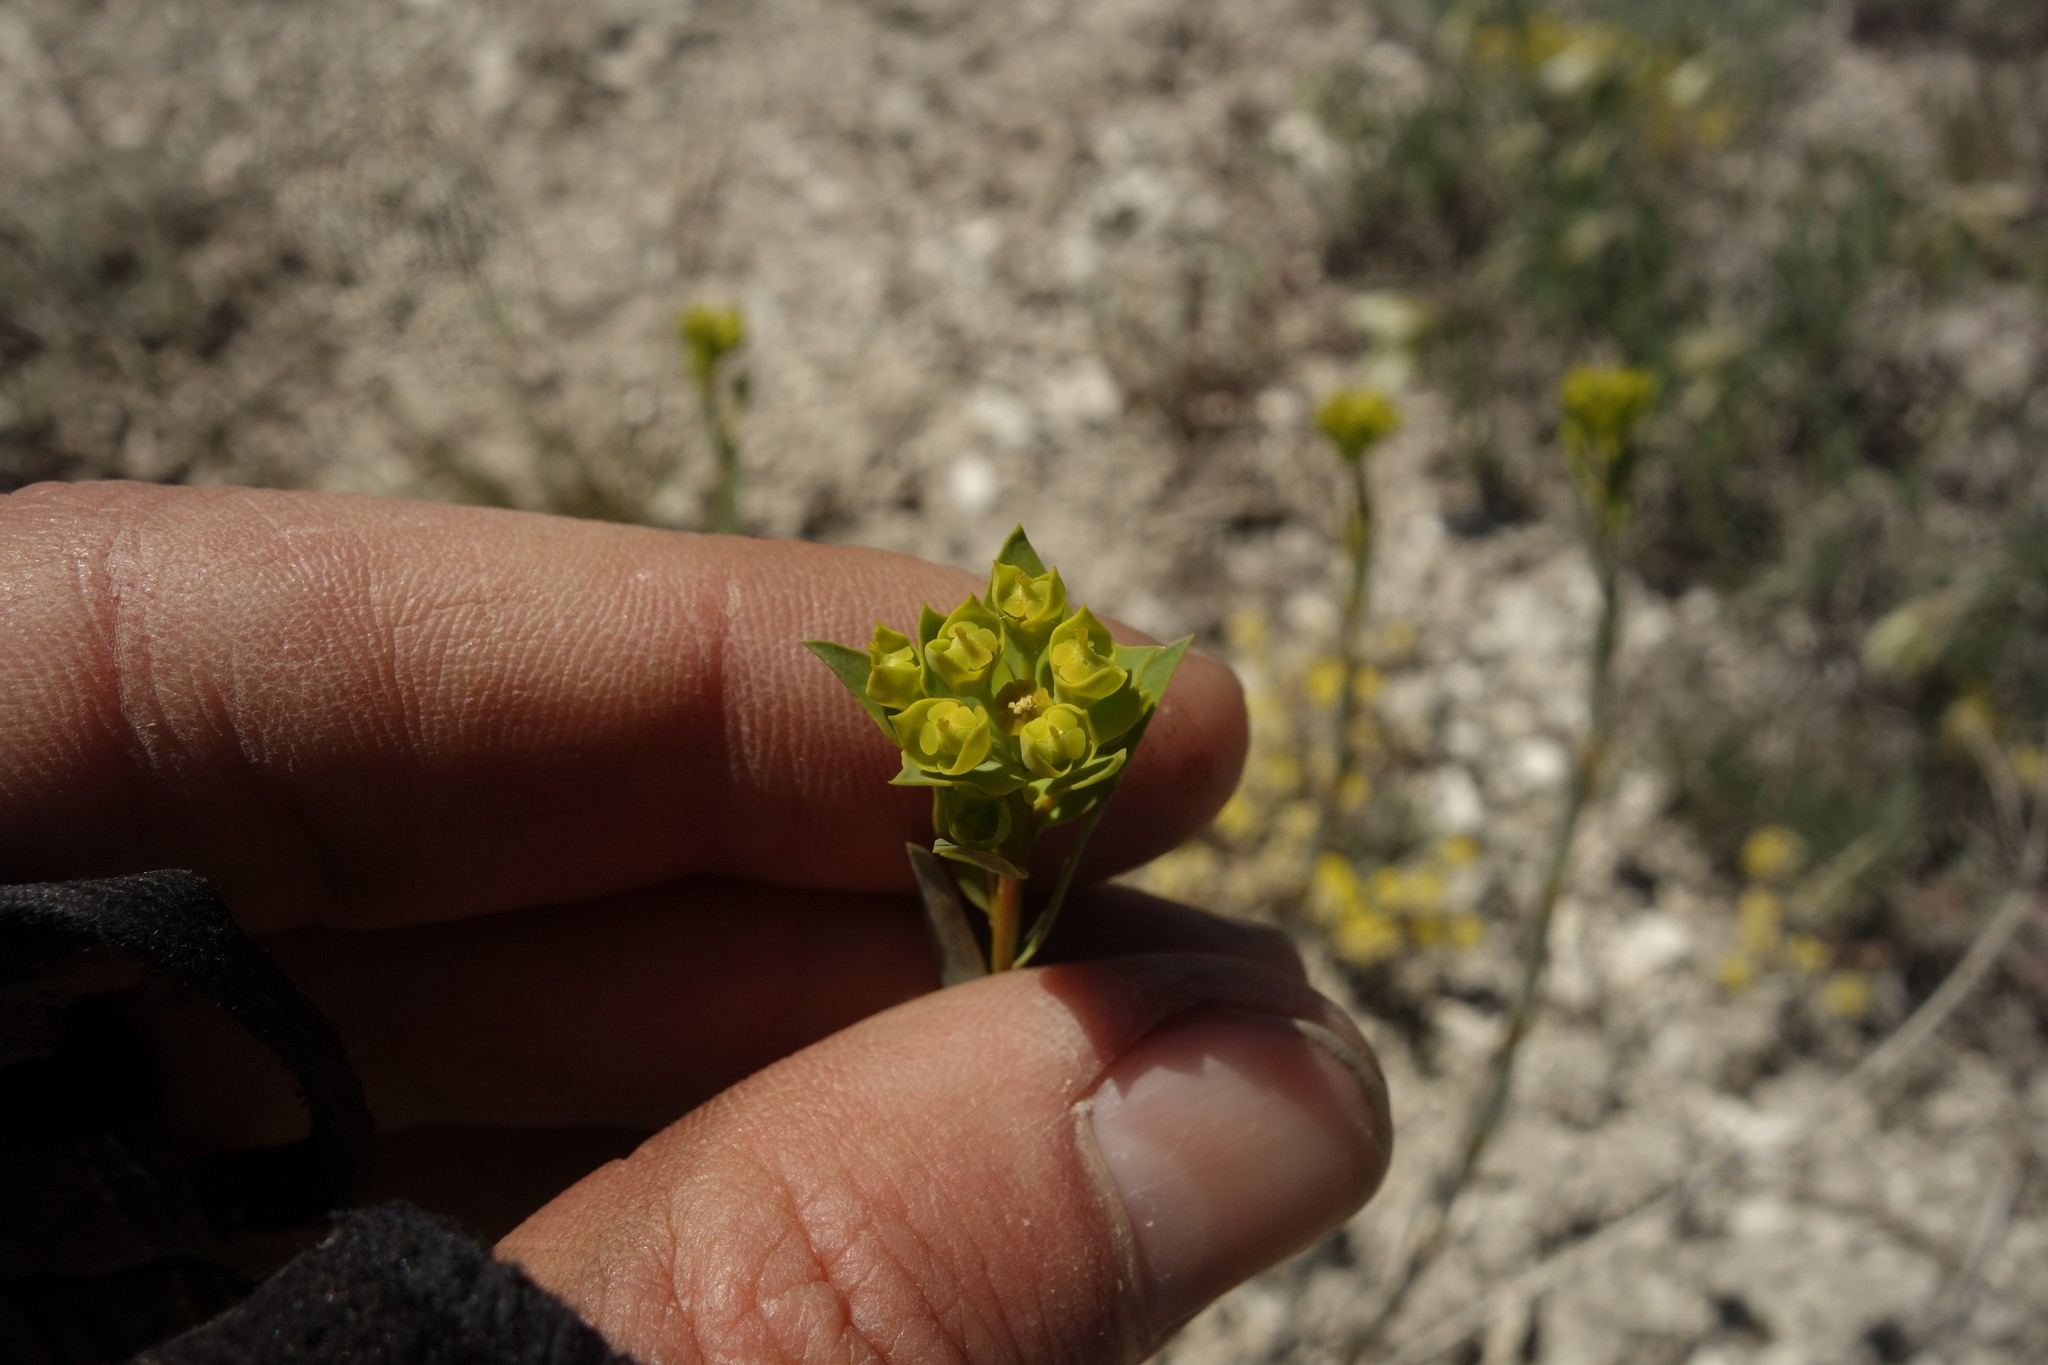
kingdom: Plantae
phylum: Tracheophyta
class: Magnoliopsida
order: Malpighiales
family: Euphorbiaceae
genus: Euphorbia
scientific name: Euphorbia seguieriana
